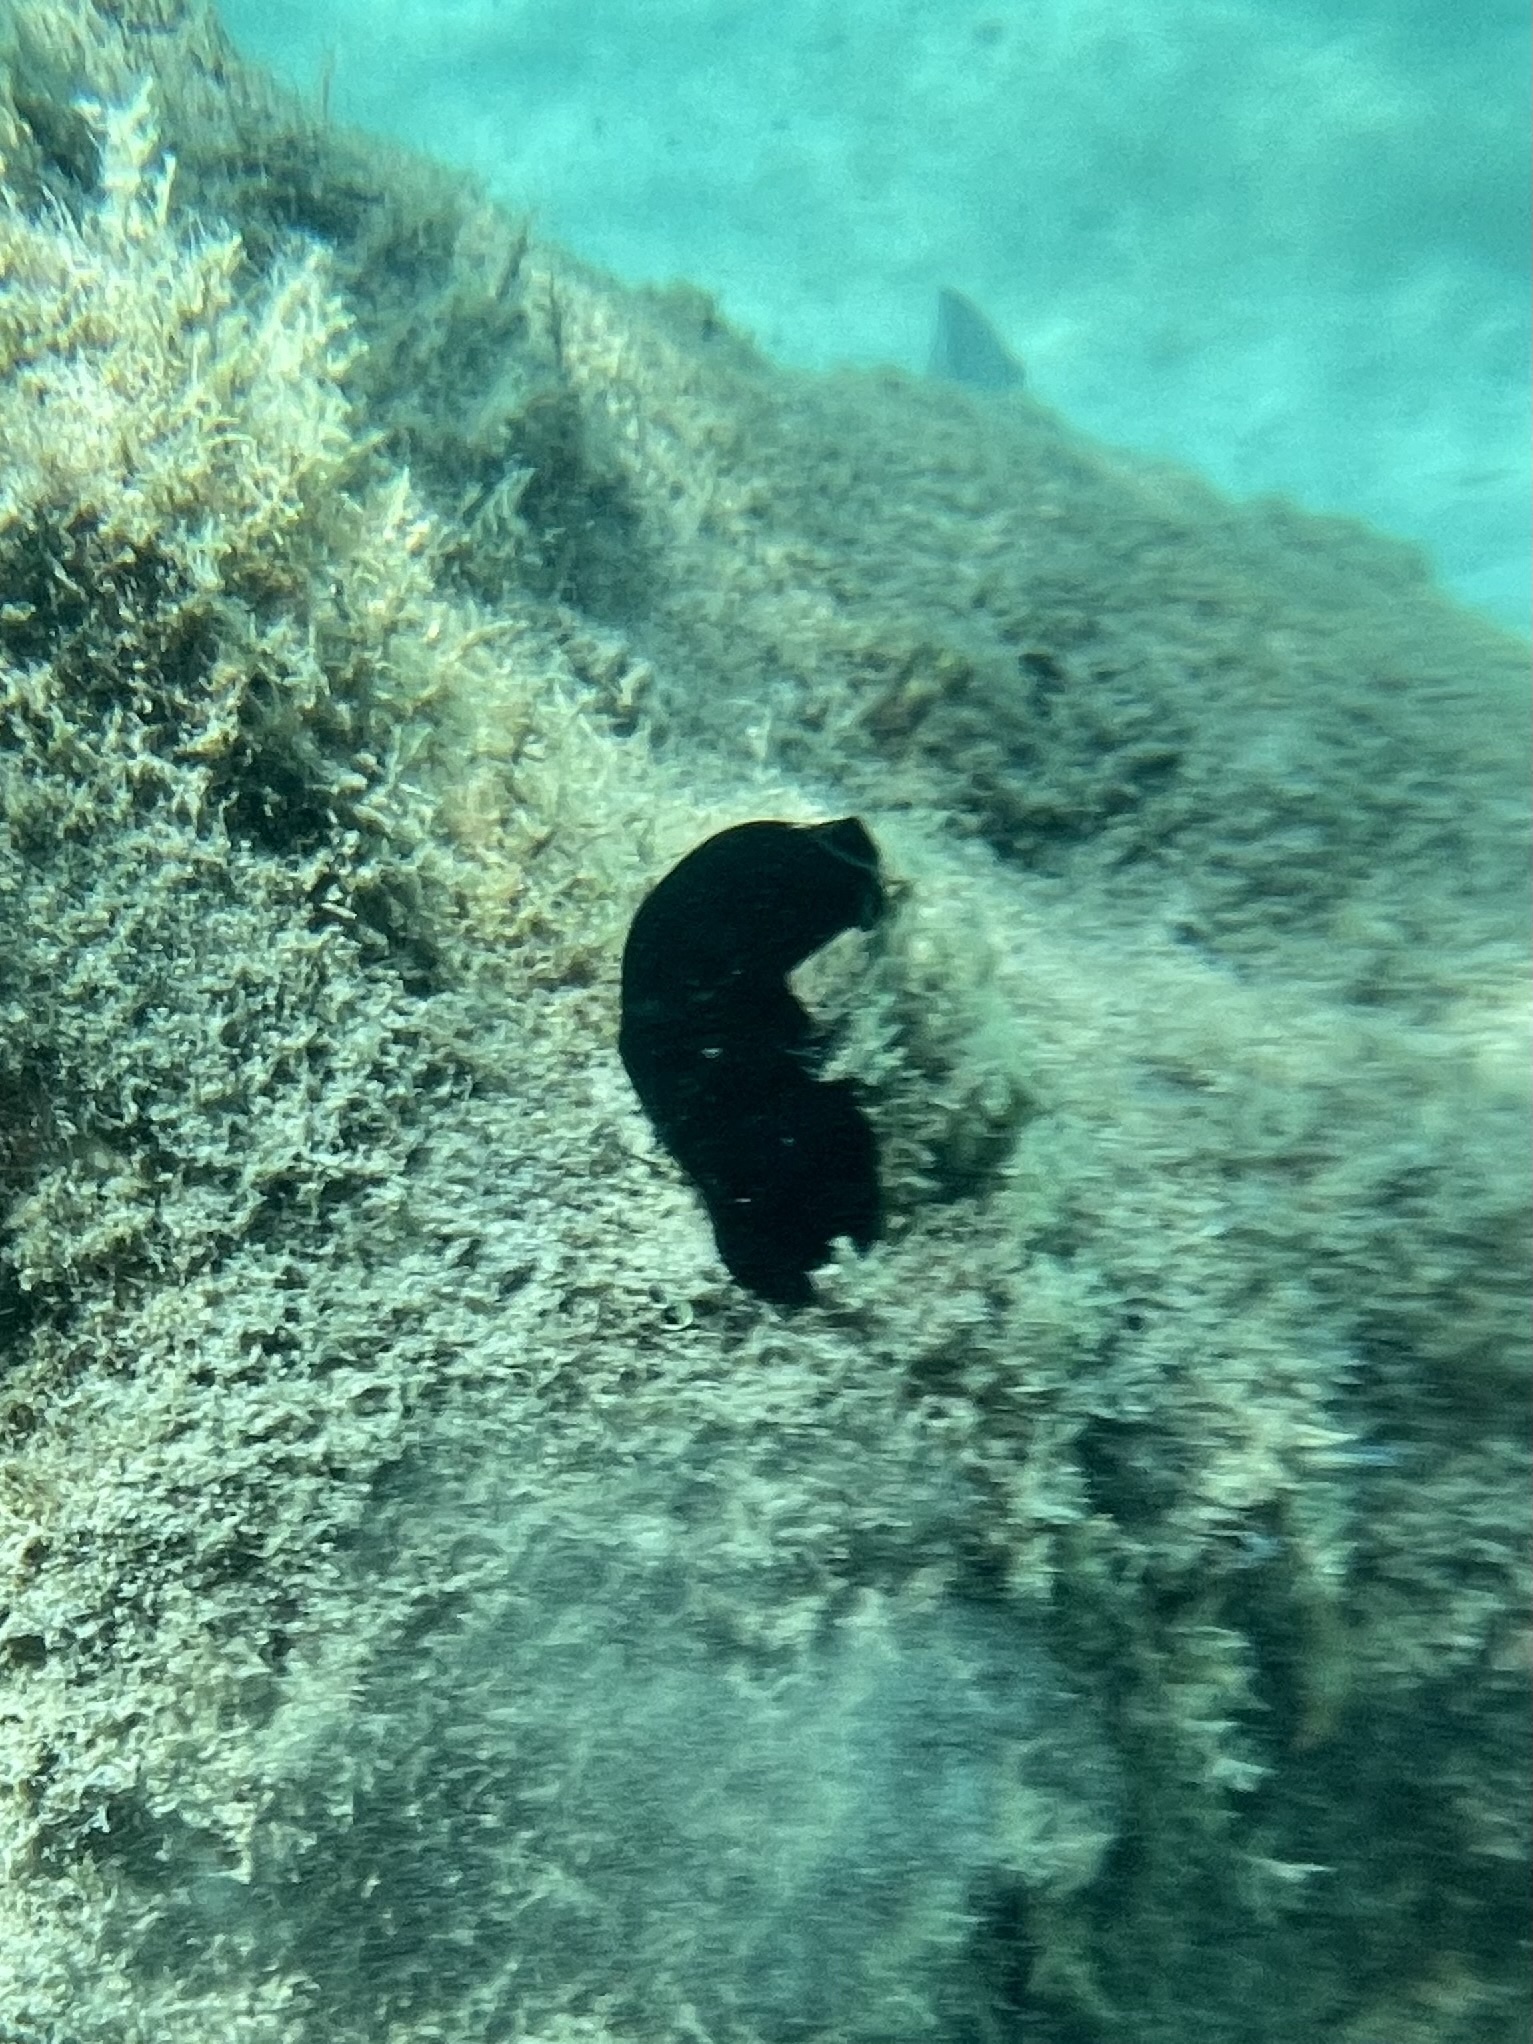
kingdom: Animalia
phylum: Chordata
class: Ascidiacea
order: Phlebobranchia
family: Ascidiidae
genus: Phallusia
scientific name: Phallusia nigra
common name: Black tunicate
